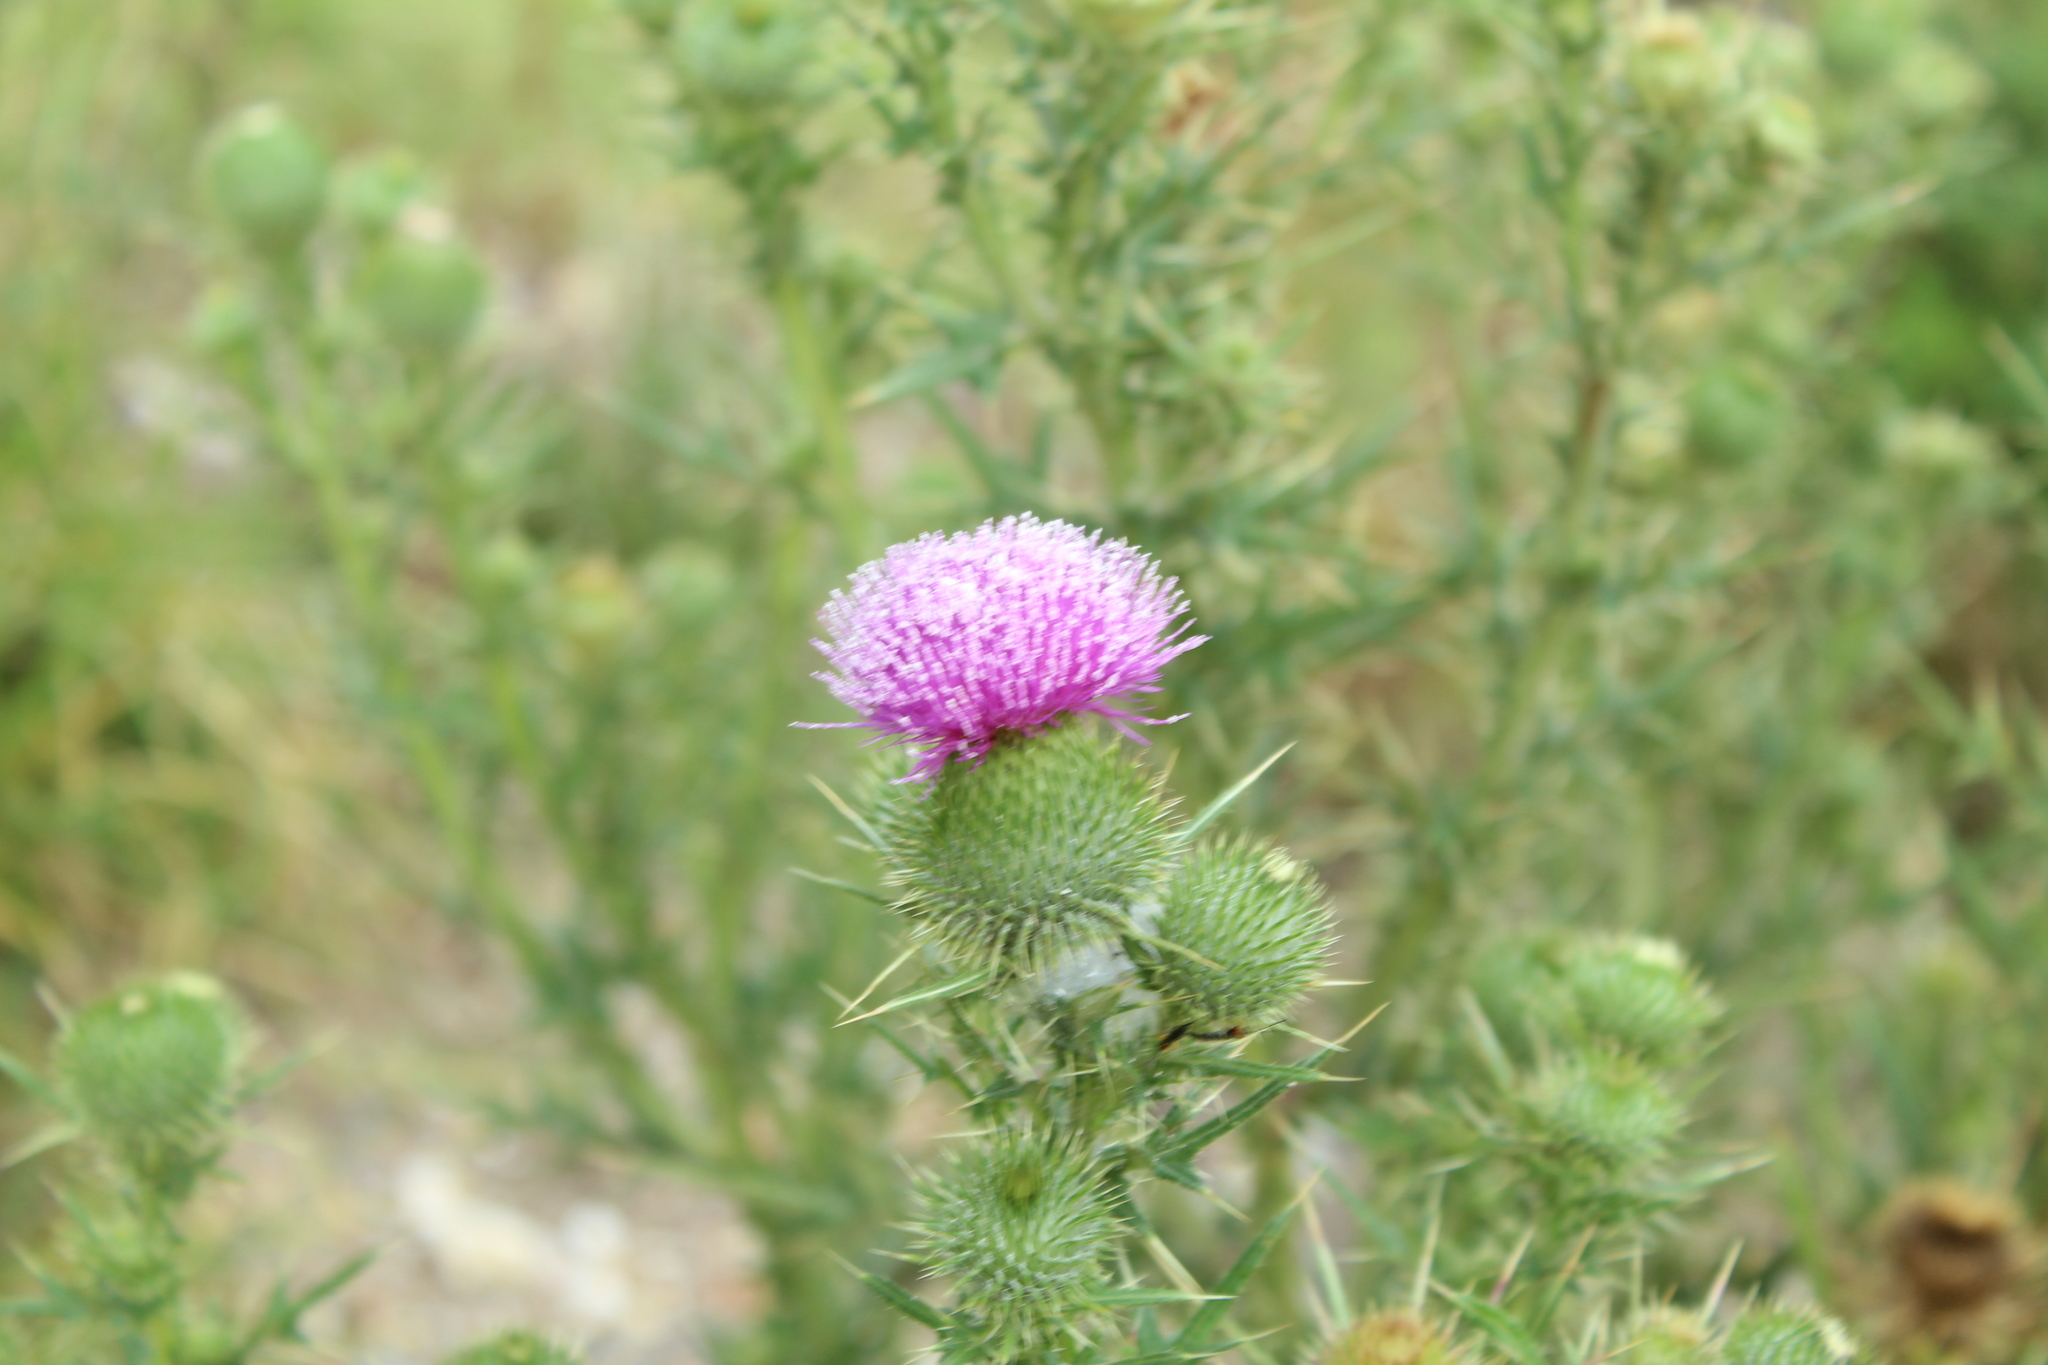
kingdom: Plantae
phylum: Tracheophyta
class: Magnoliopsida
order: Asterales
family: Asteraceae
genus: Cirsium
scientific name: Cirsium vulgare
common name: Bull thistle
